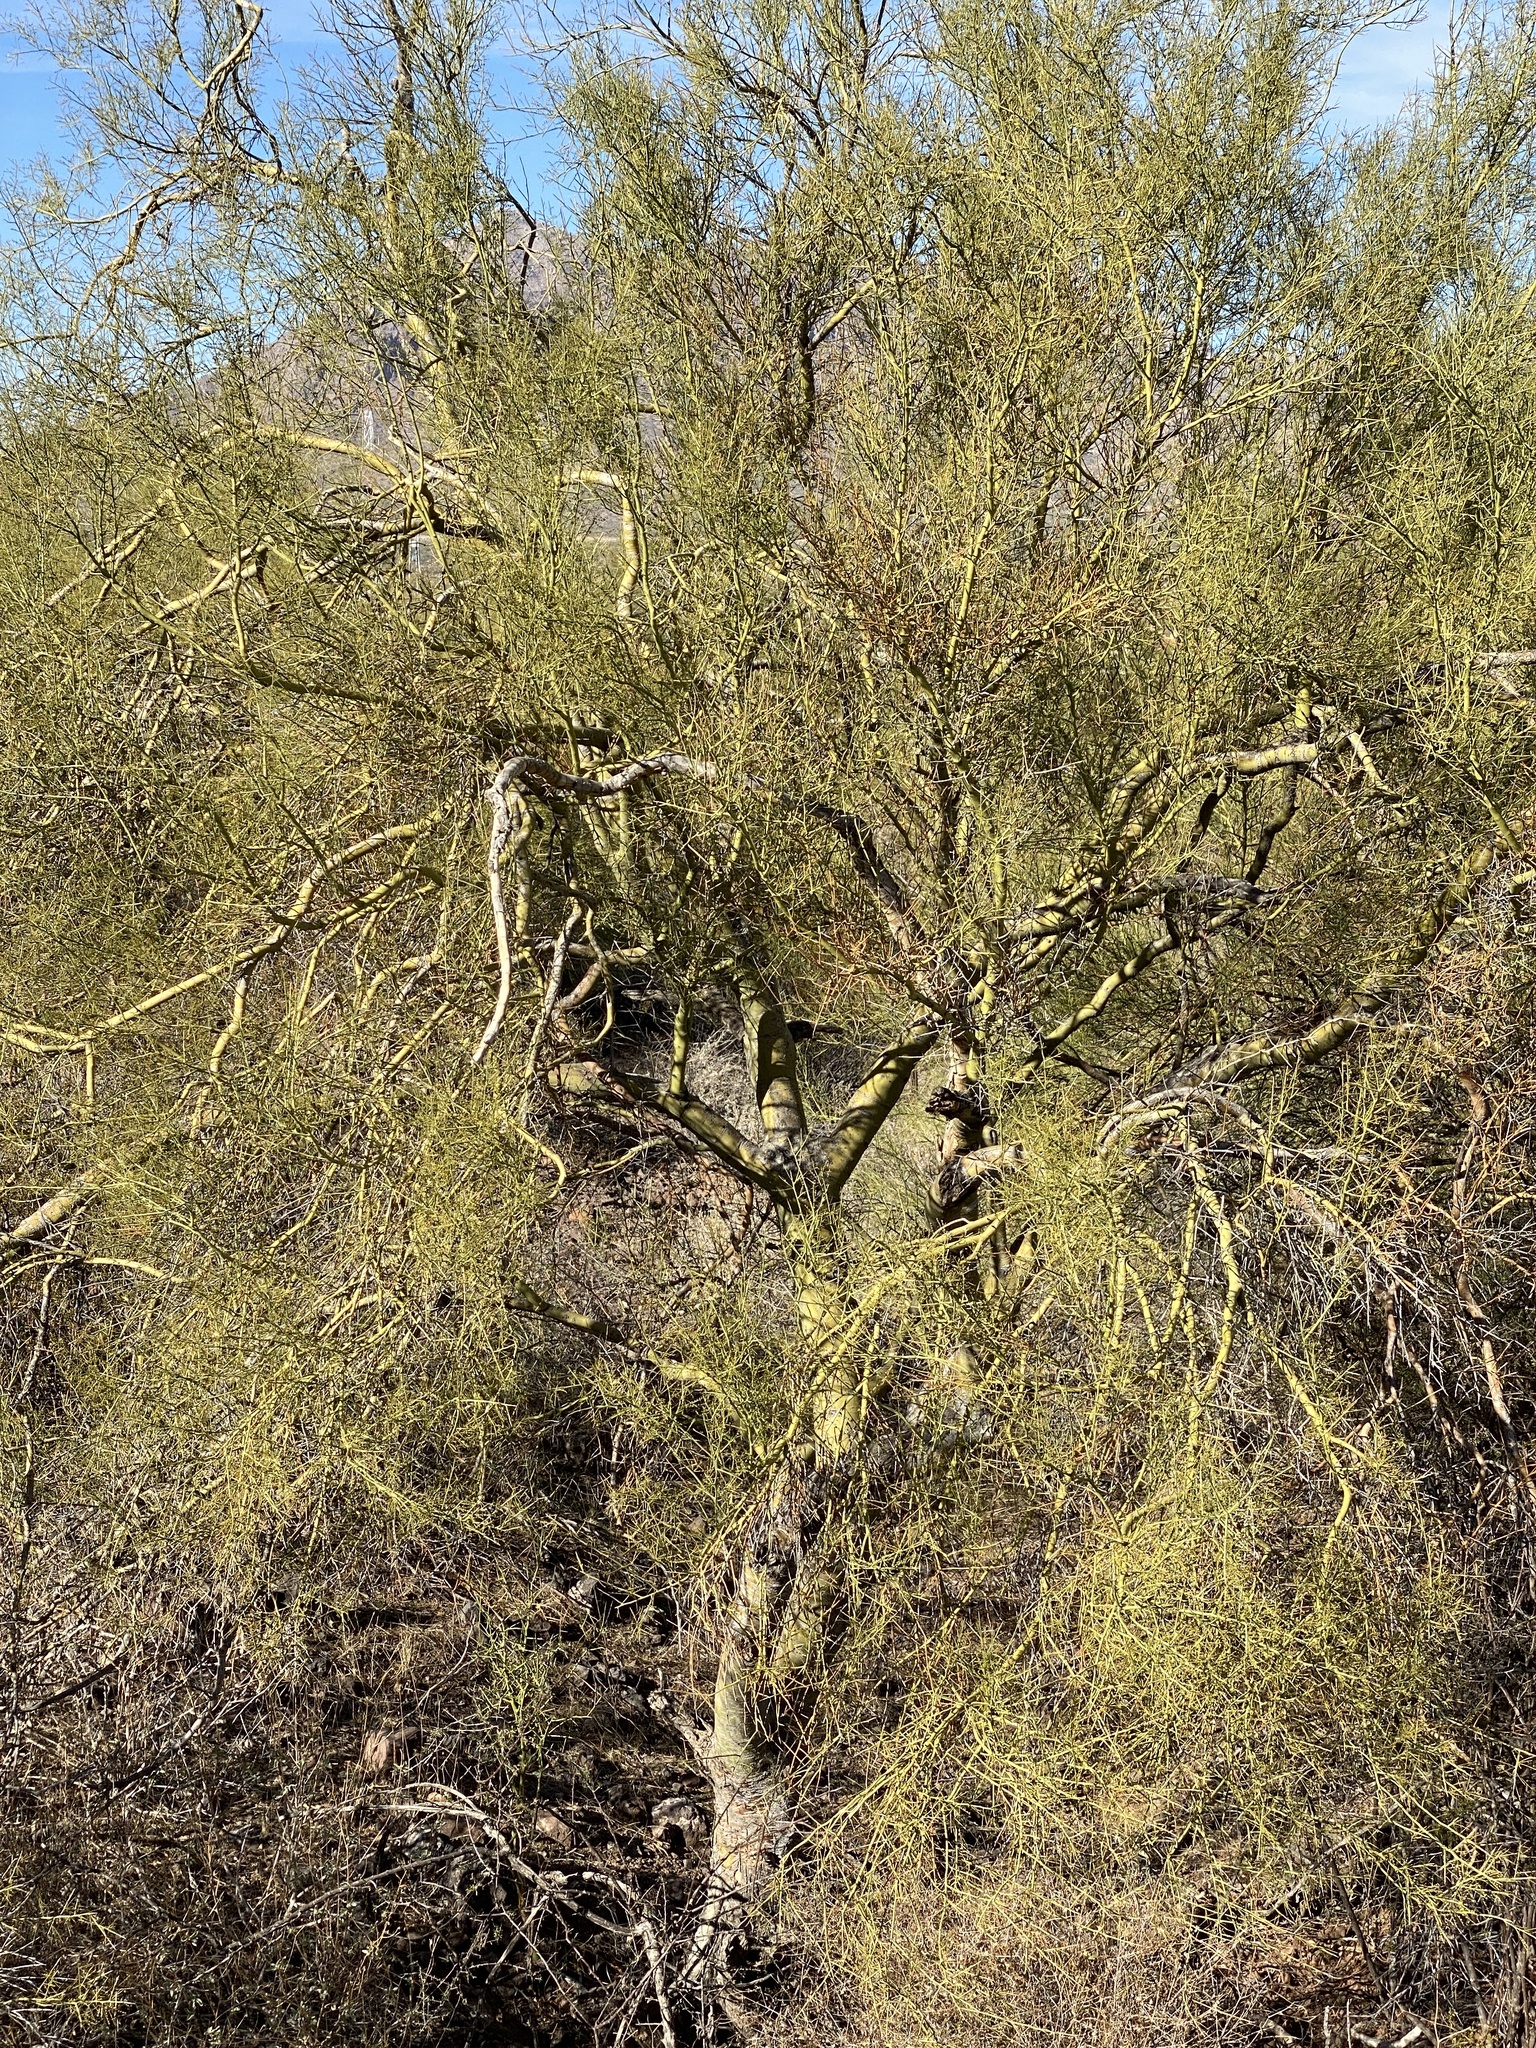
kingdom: Plantae
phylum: Tracheophyta
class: Magnoliopsida
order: Fabales
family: Fabaceae
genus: Parkinsonia
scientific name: Parkinsonia microphylla
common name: Yellow paloverde
